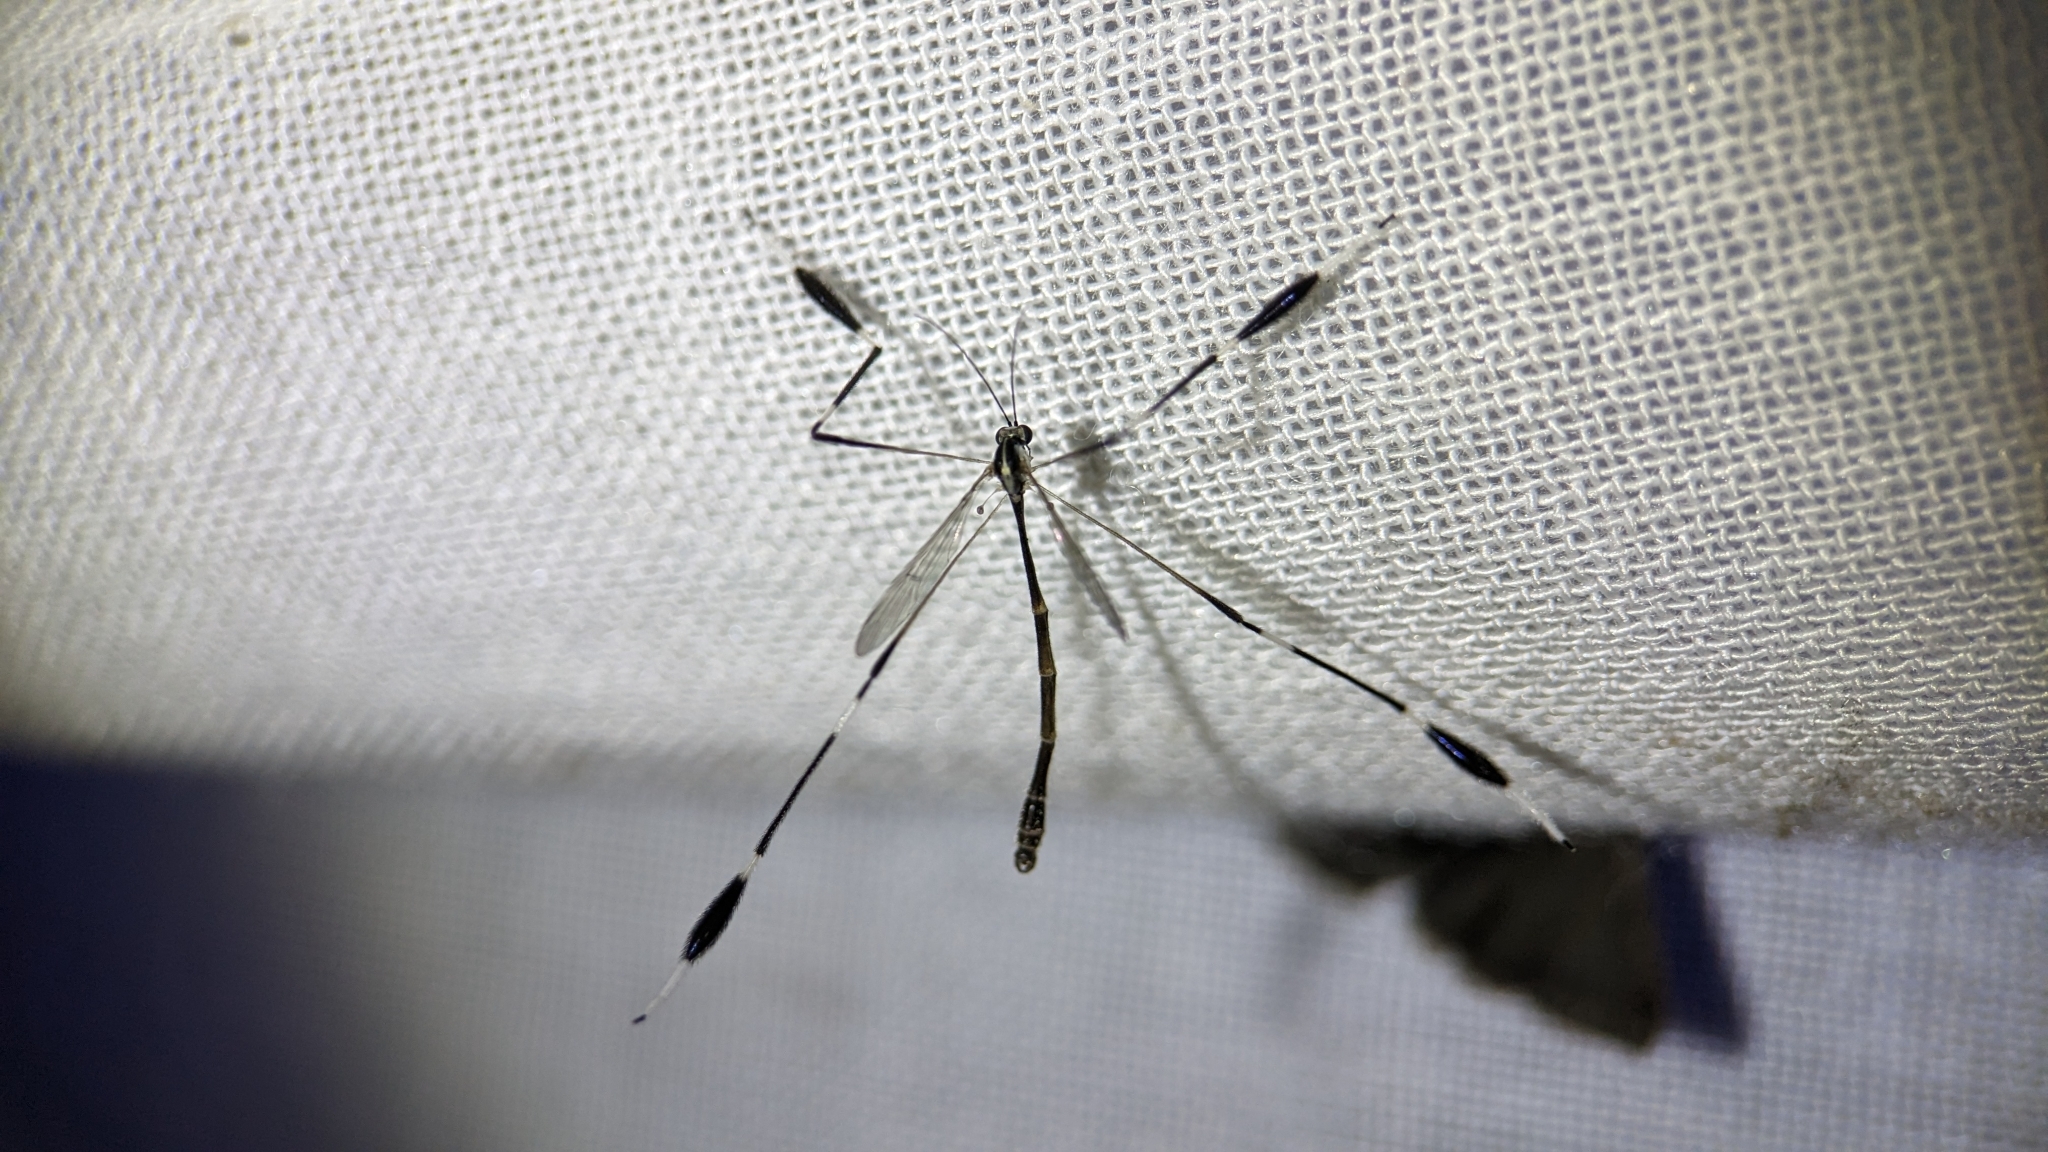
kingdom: Animalia
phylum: Arthropoda
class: Insecta
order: Diptera
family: Ptychopteridae
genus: Bittacomorpha
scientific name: Bittacomorpha clavipes
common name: Eastern phantom crane fly
